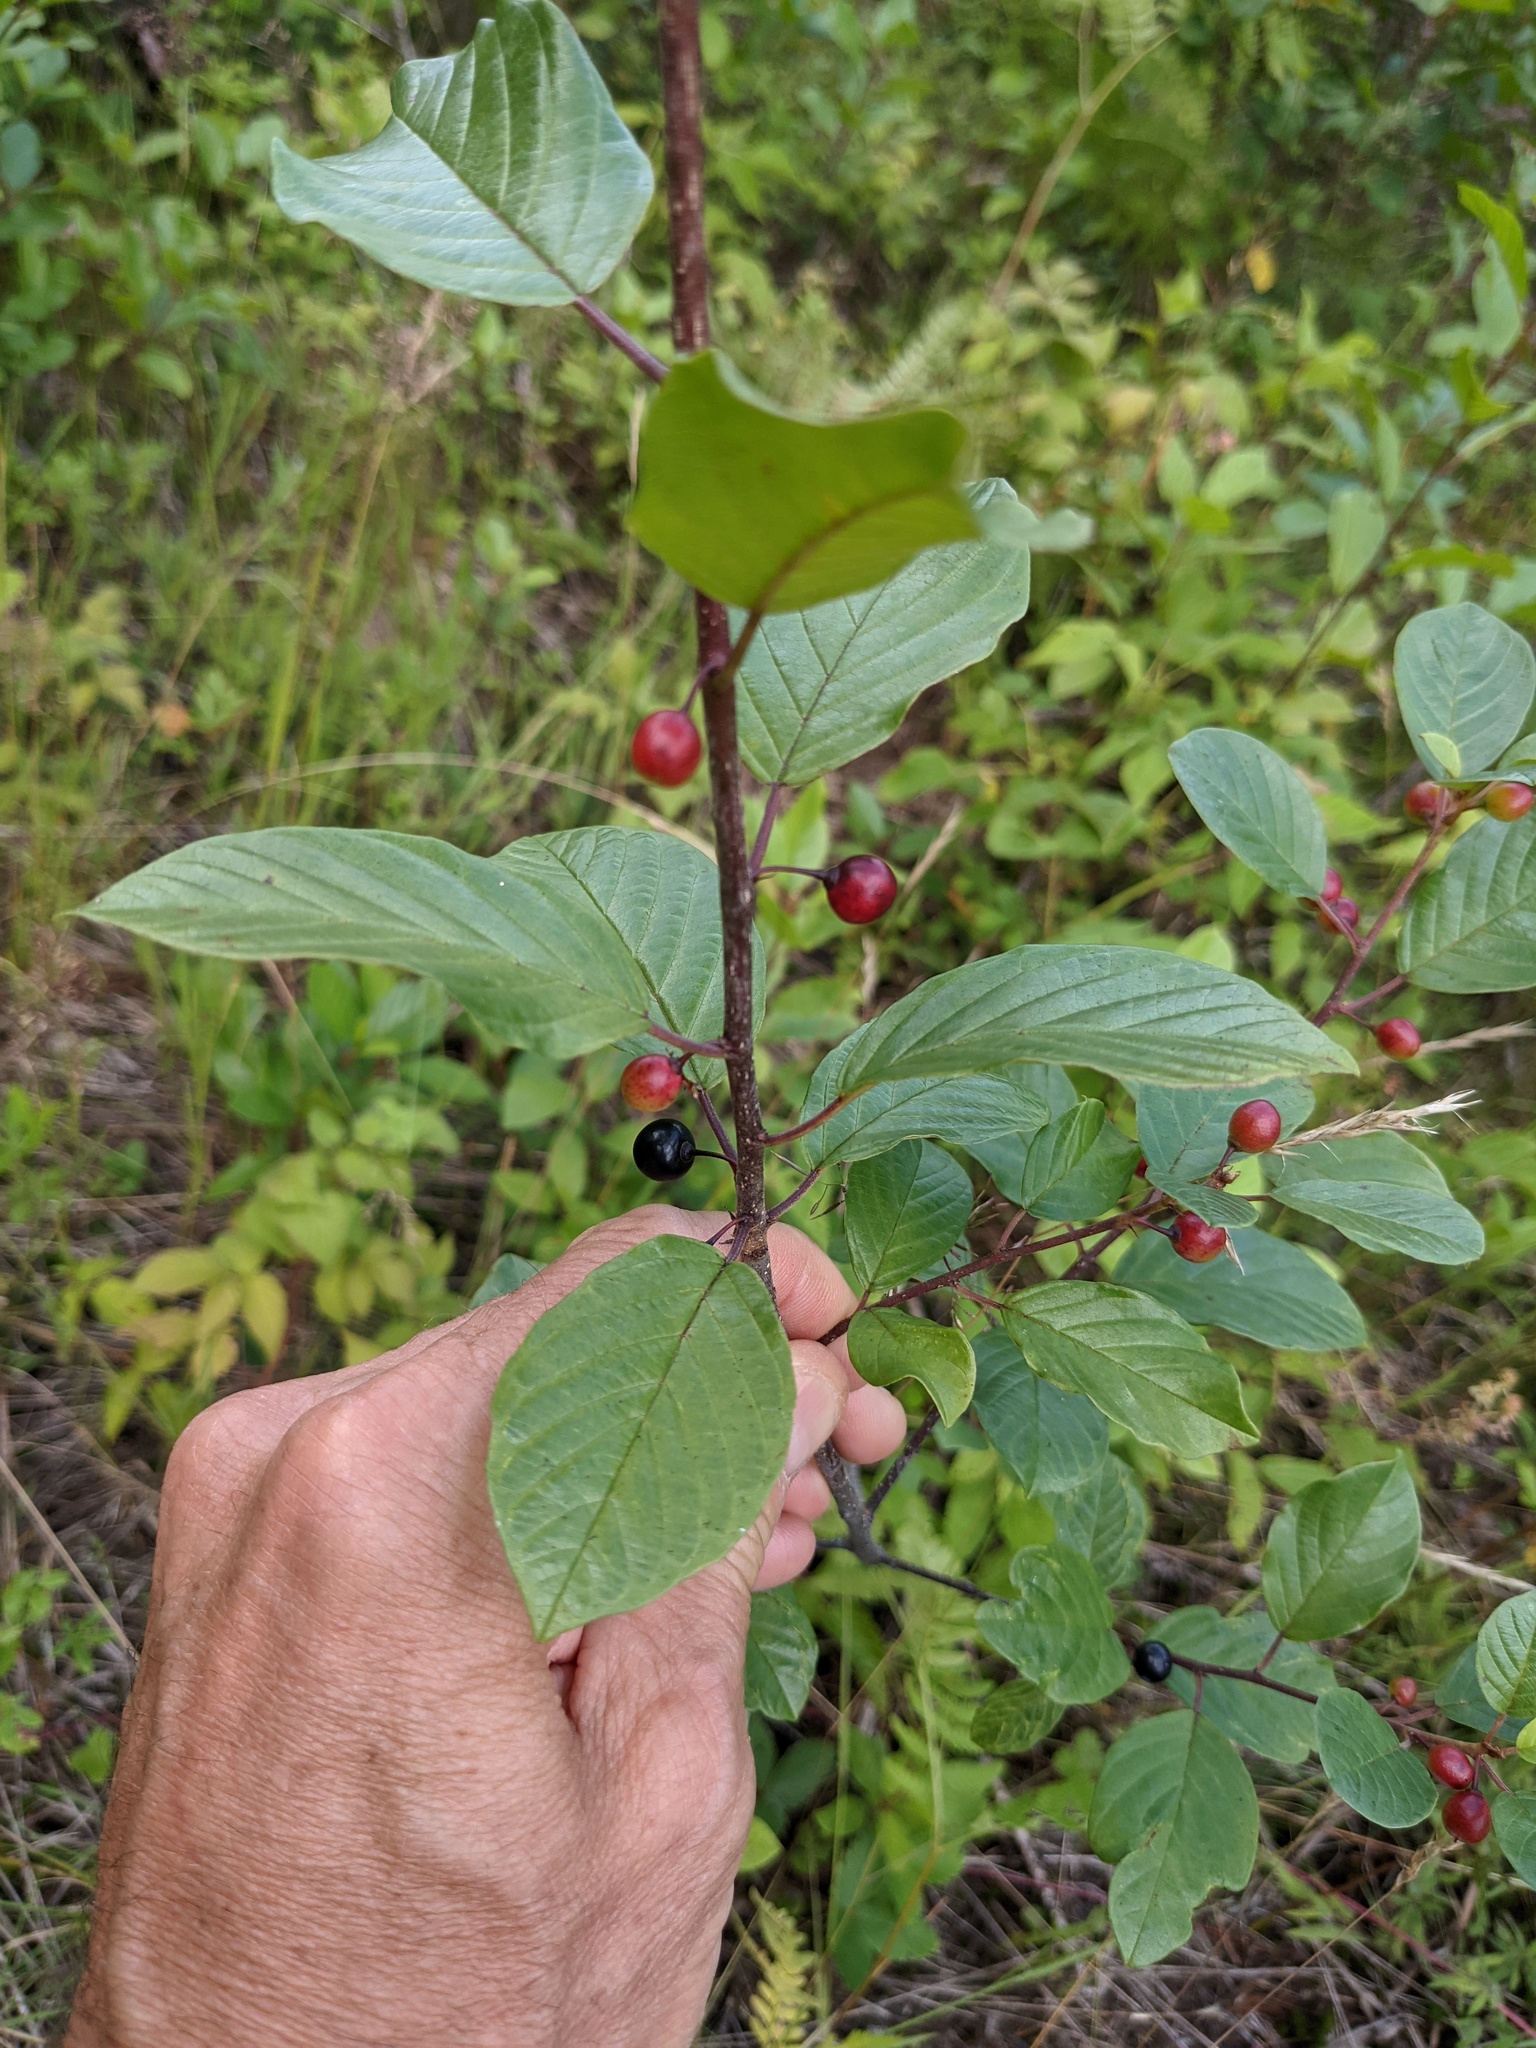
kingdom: Plantae
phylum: Tracheophyta
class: Magnoliopsida
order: Rosales
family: Rhamnaceae
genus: Frangula
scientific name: Frangula alnus
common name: Alder buckthorn
